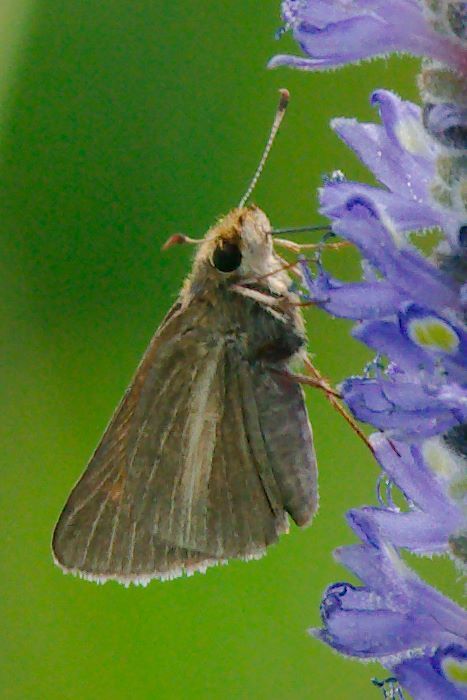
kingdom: Animalia
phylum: Arthropoda
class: Insecta
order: Lepidoptera
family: Hesperiidae
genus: Poanes
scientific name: Poanes aaroni
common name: Aaron's skipper
